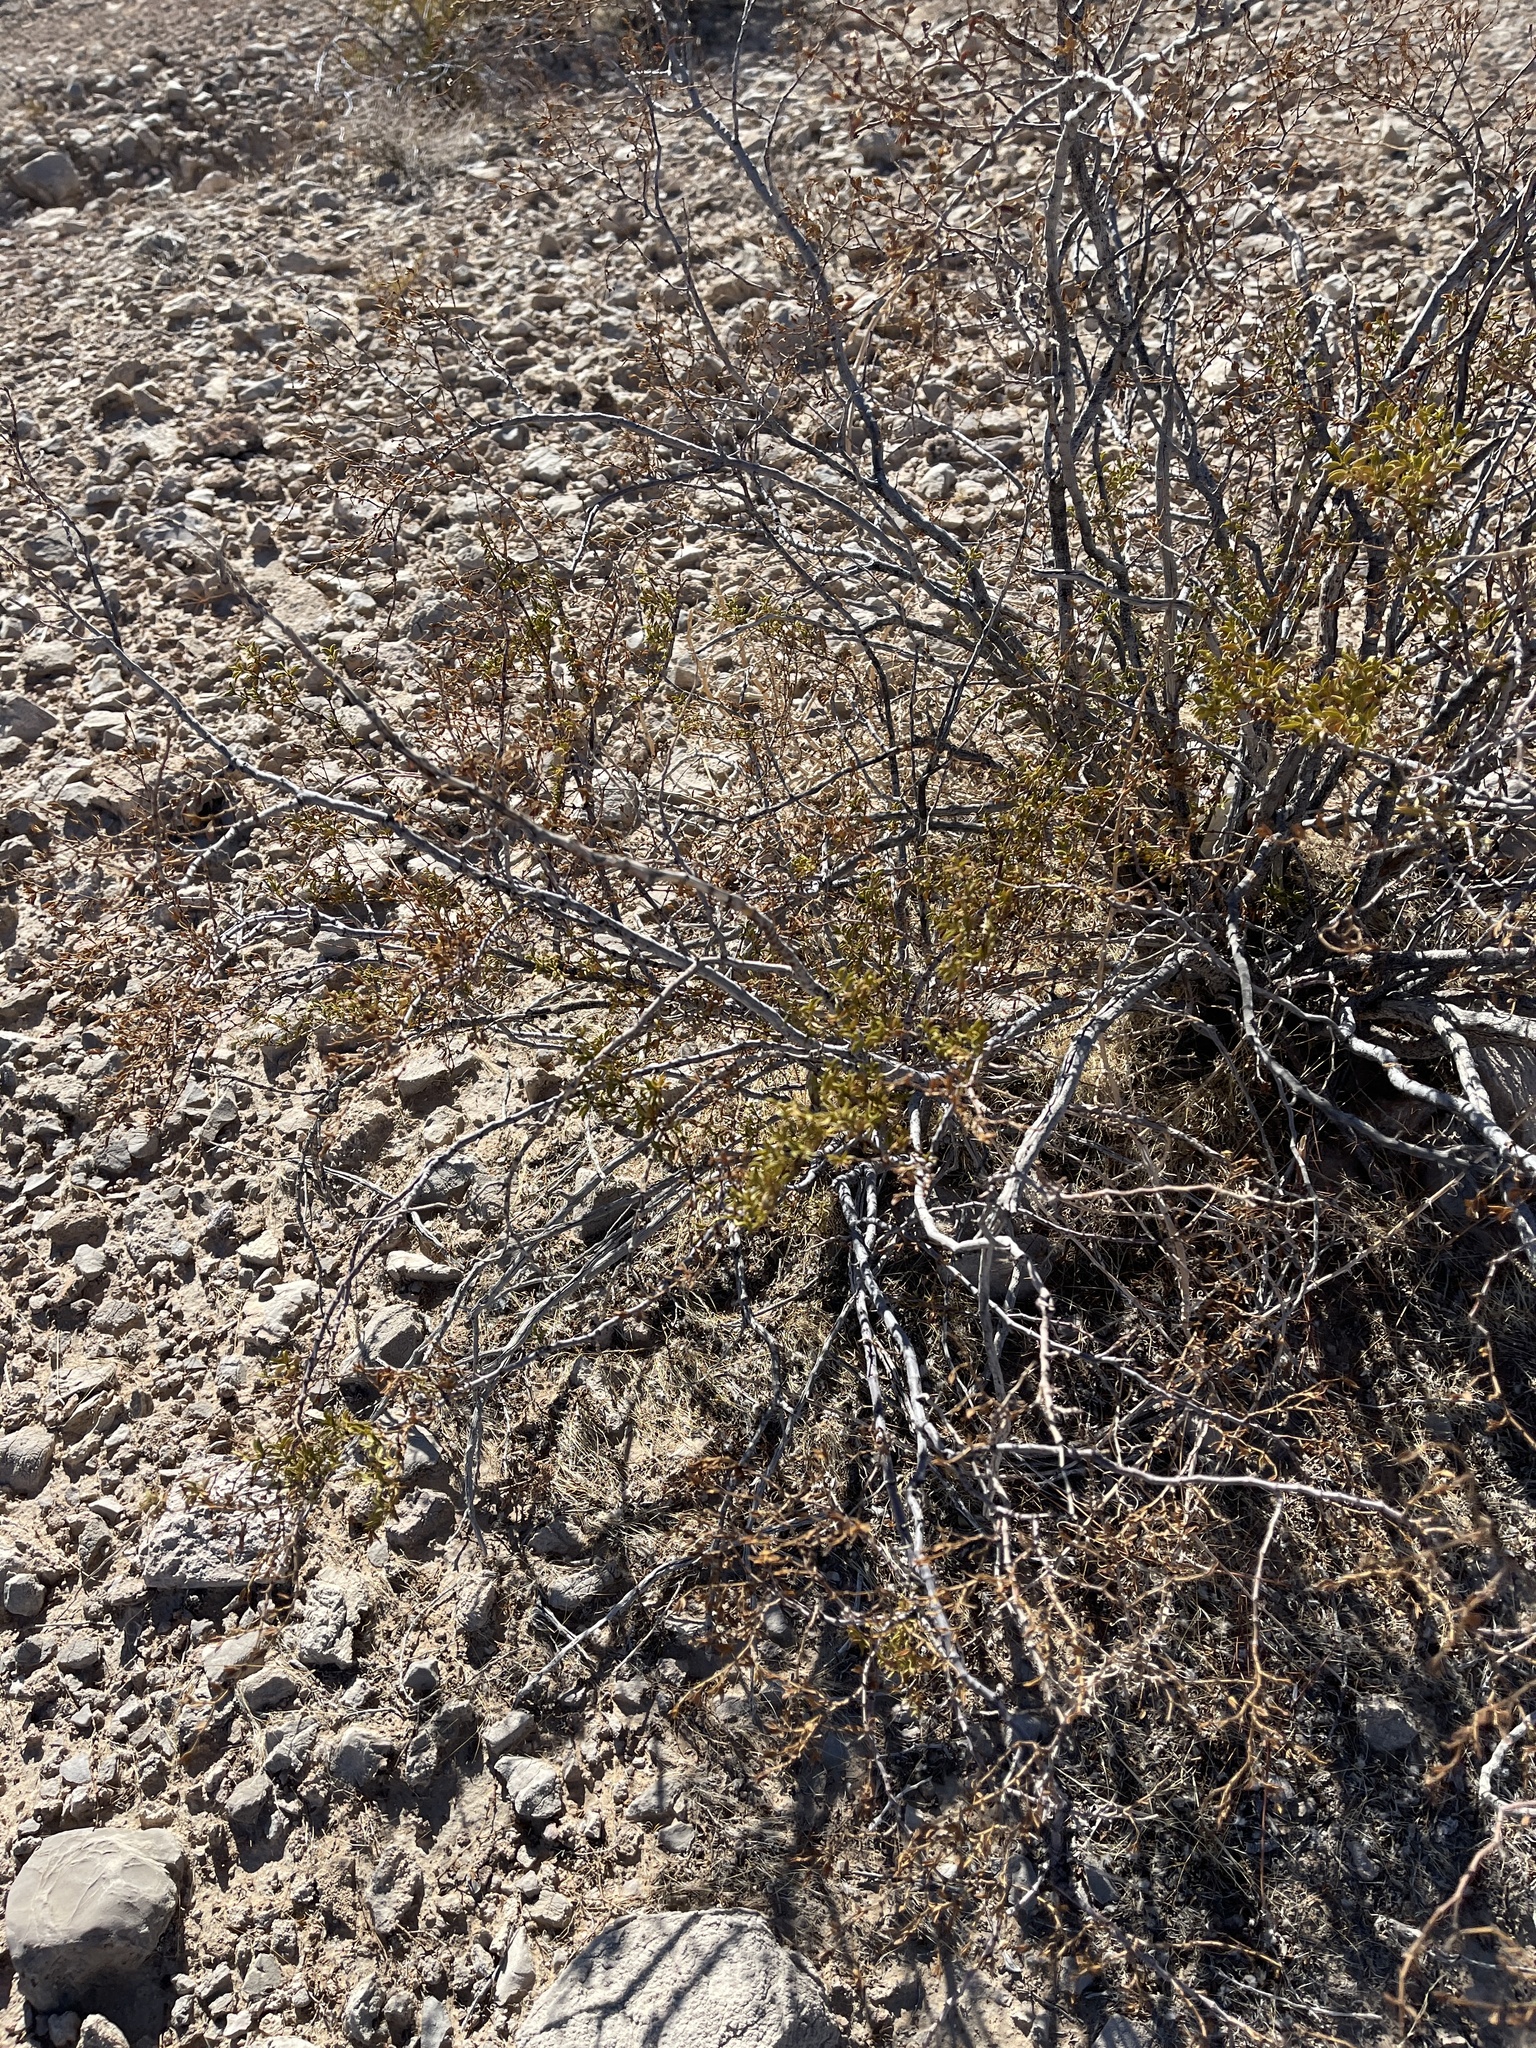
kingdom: Plantae
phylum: Tracheophyta
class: Magnoliopsida
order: Zygophyllales
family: Zygophyllaceae
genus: Larrea
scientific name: Larrea tridentata
